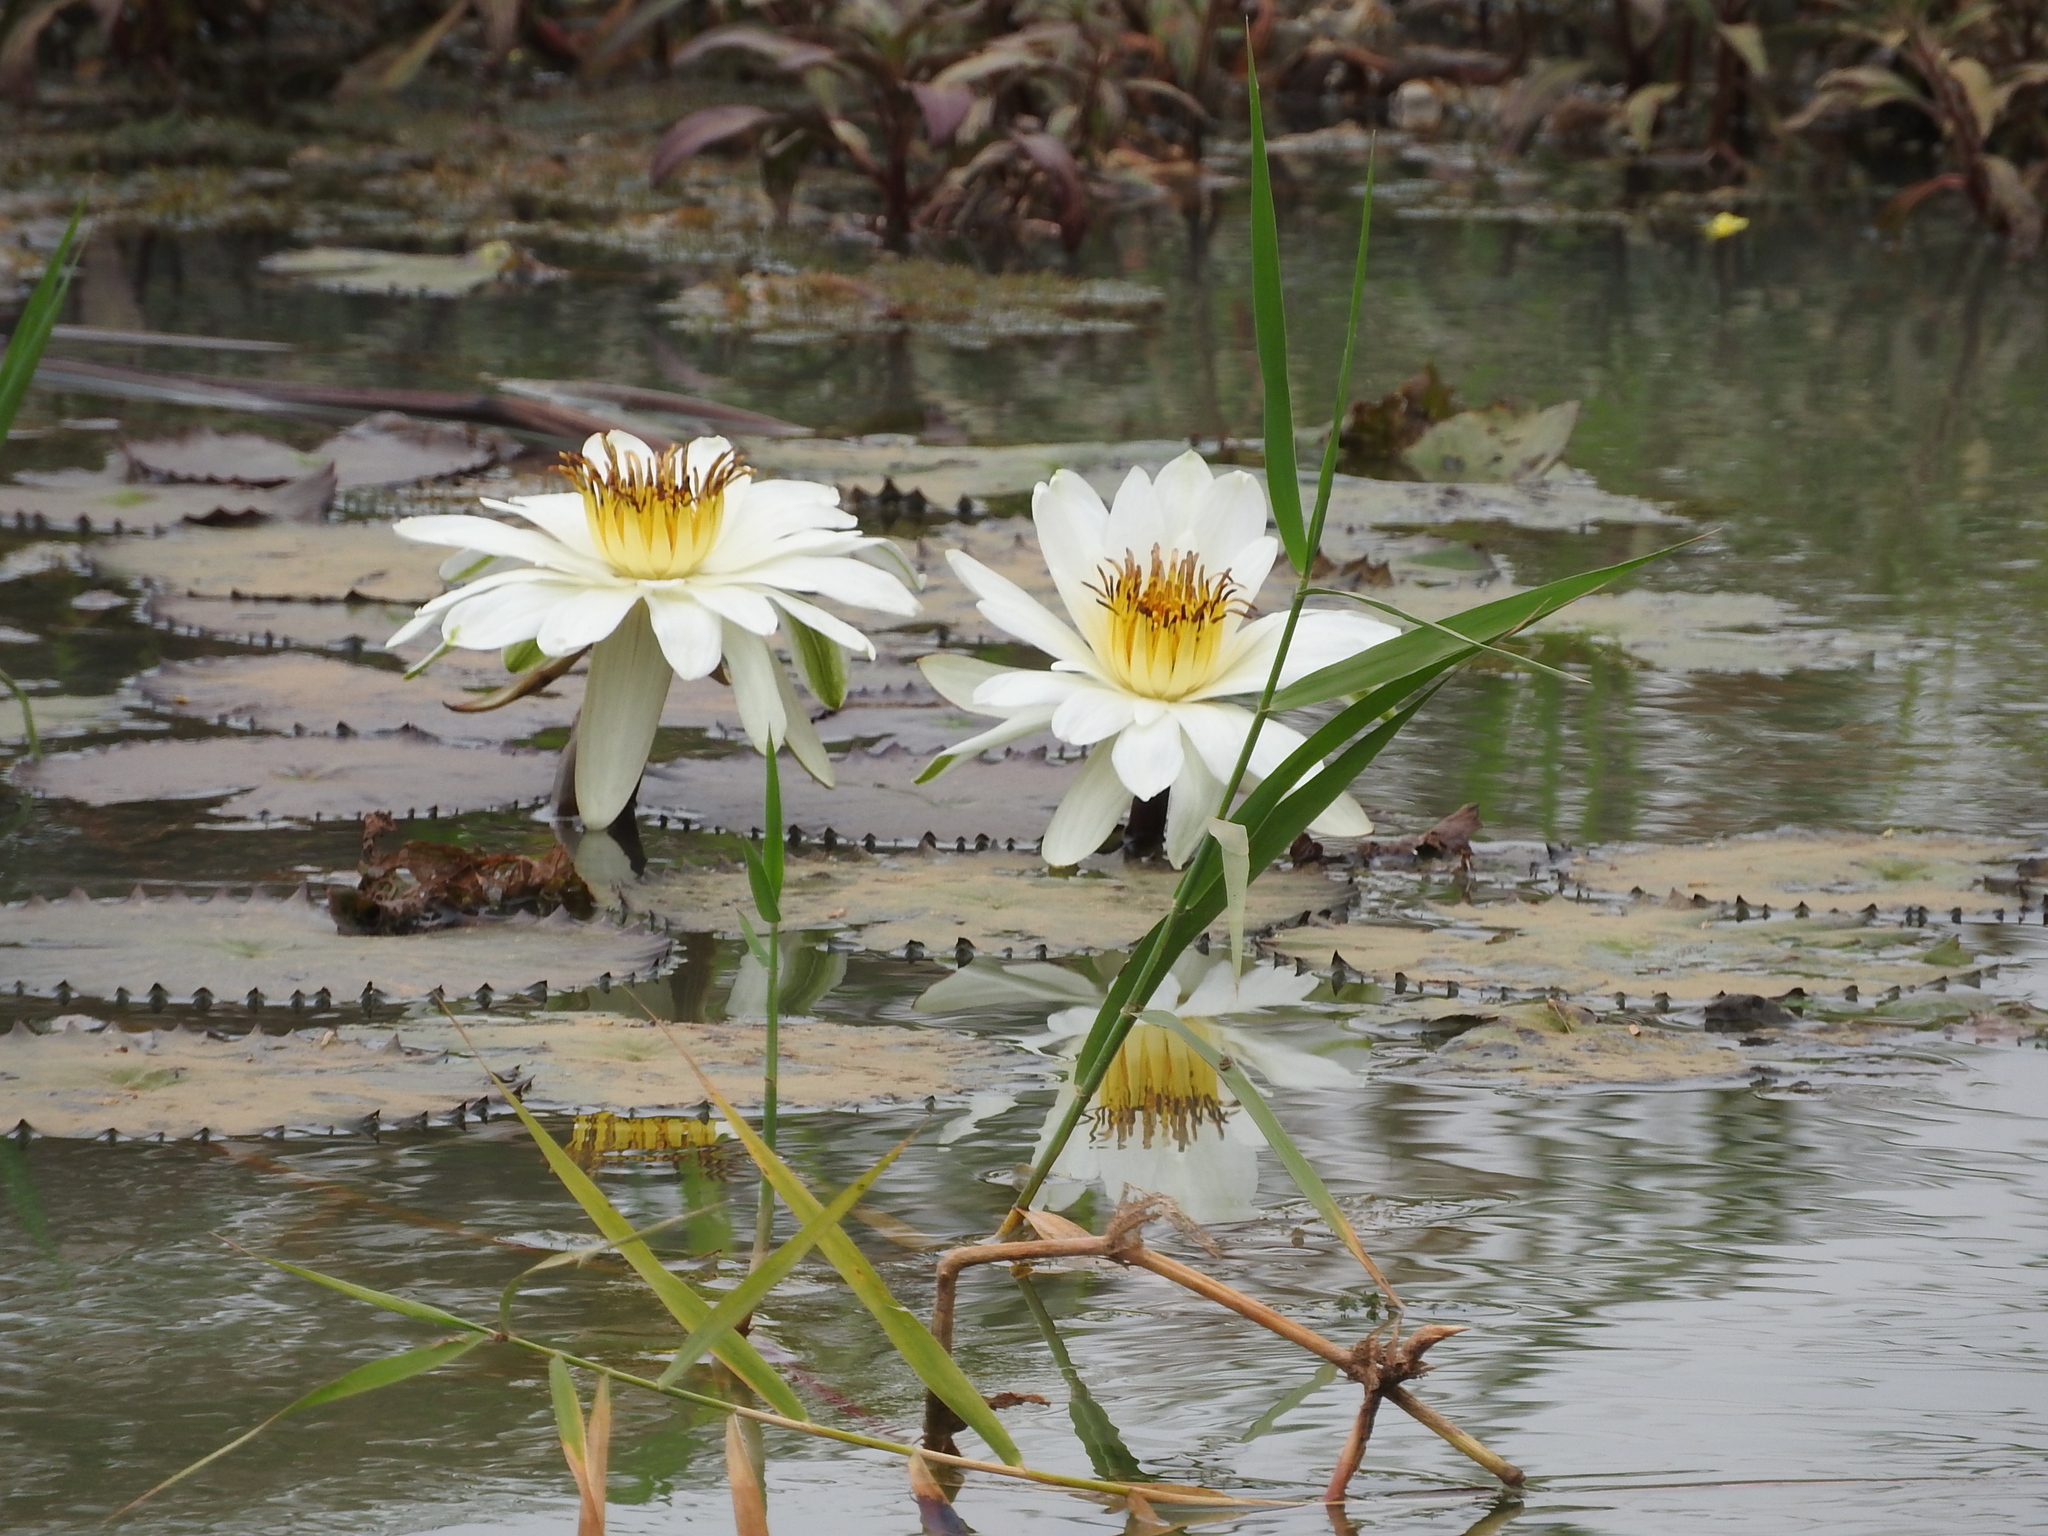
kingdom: Plantae
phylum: Tracheophyta
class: Magnoliopsida
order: Nymphaeales
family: Nymphaeaceae
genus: Nymphaea
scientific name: Nymphaea lotus
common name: White egyptian lotus
